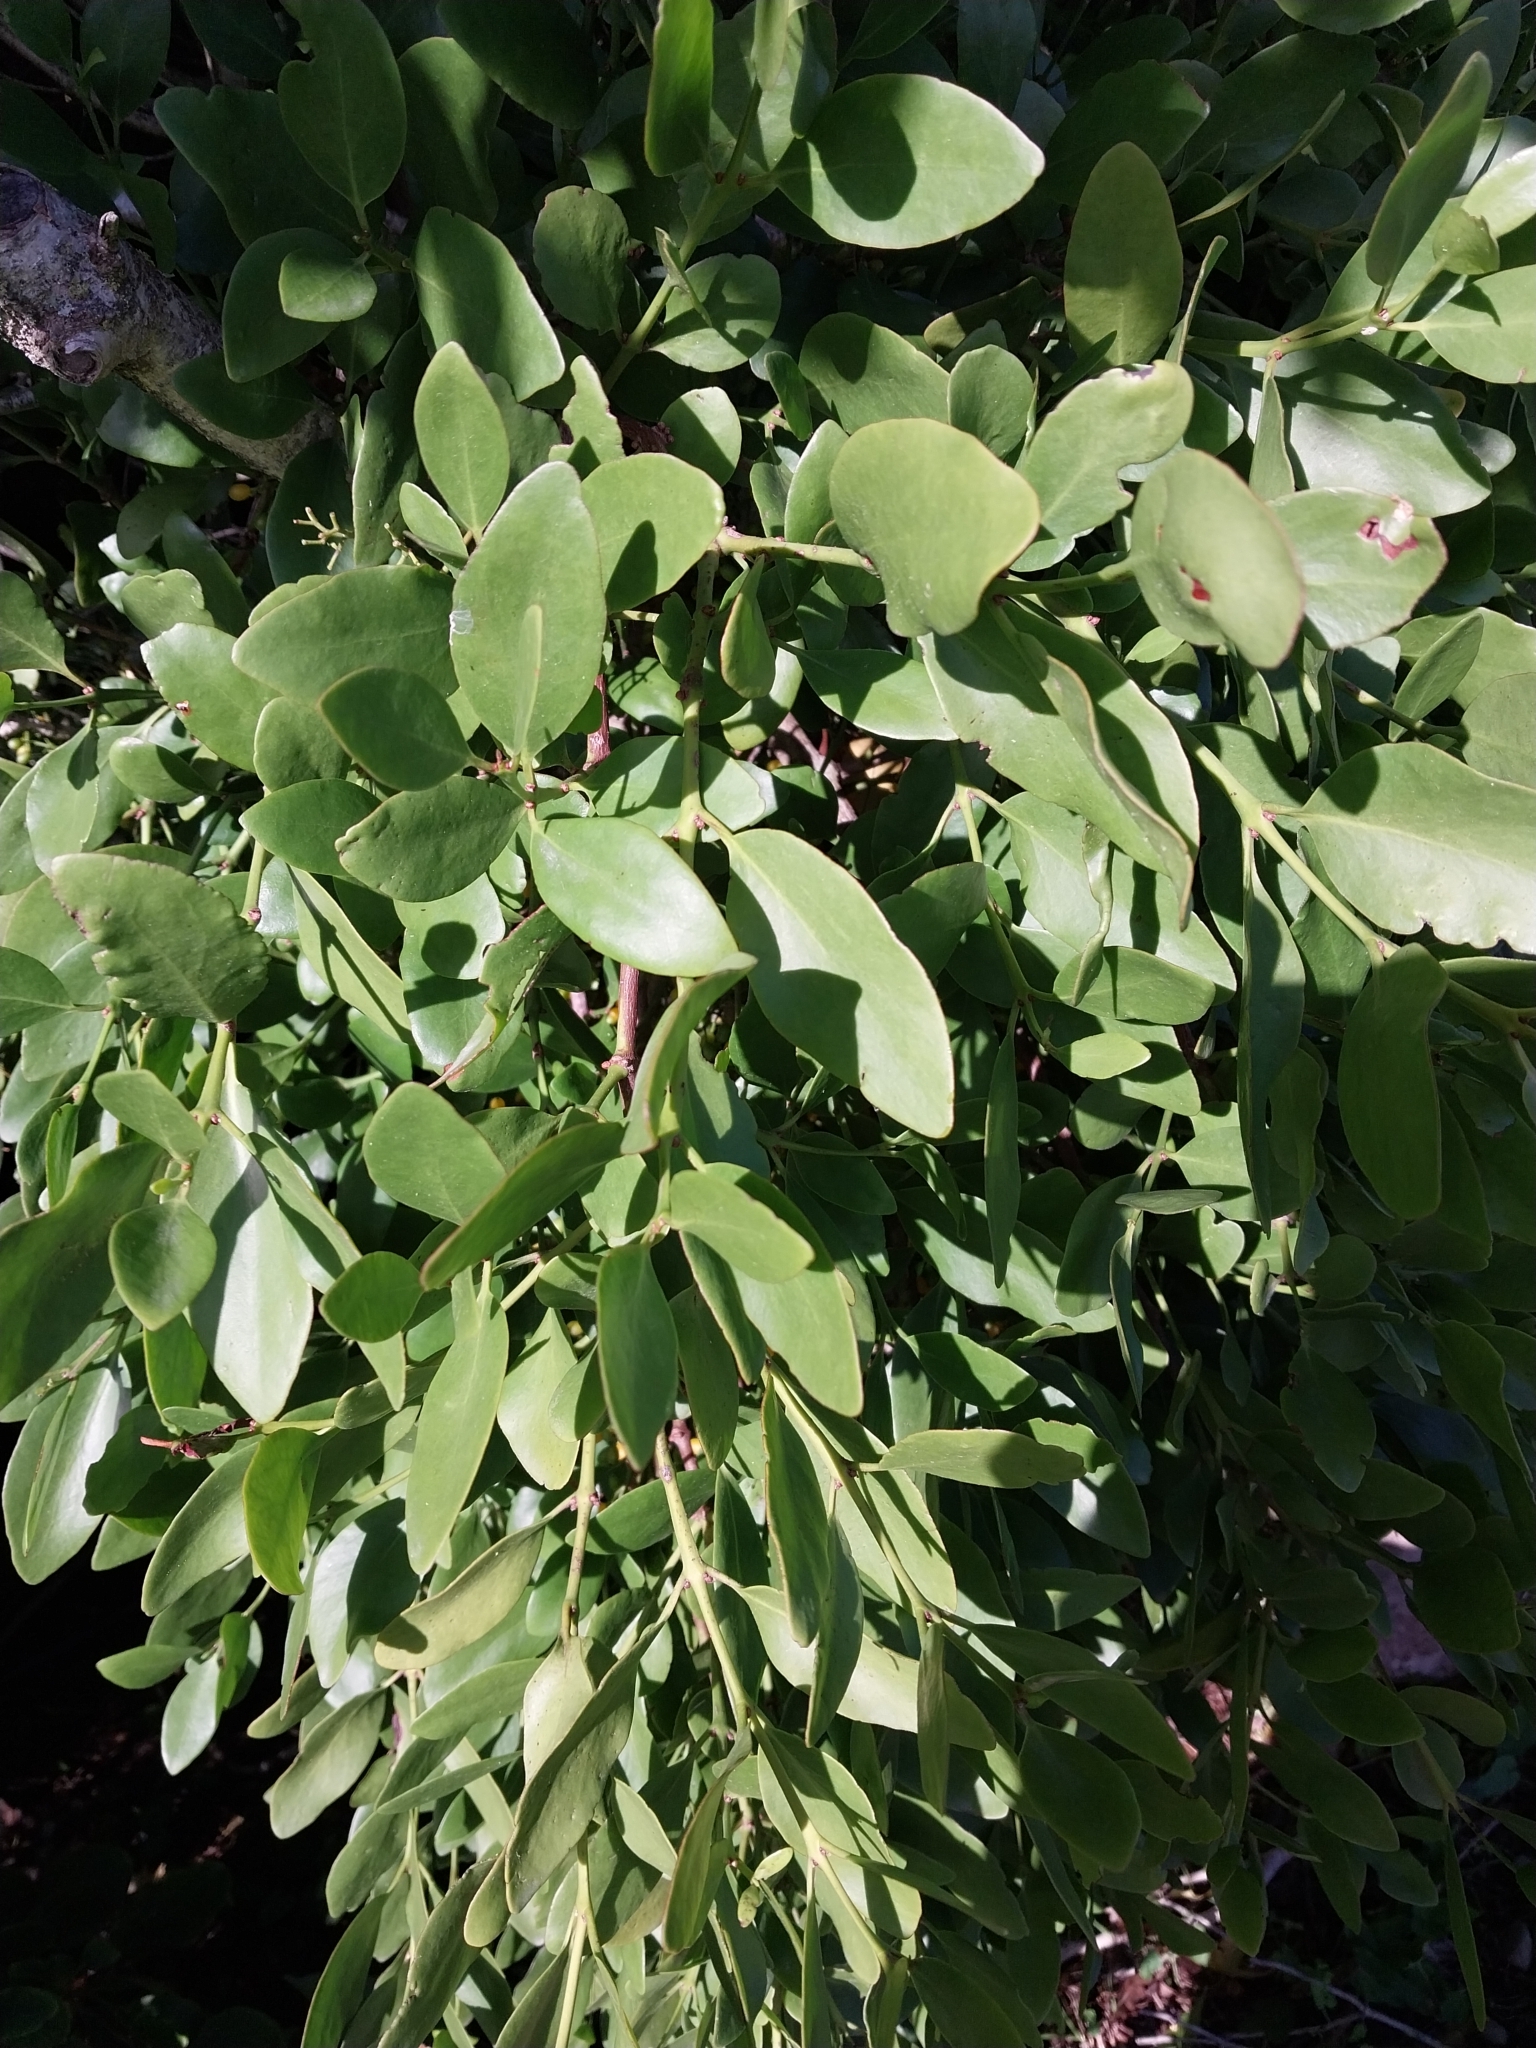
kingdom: Plantae
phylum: Tracheophyta
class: Magnoliopsida
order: Santalales
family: Loranthaceae
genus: Ileostylus
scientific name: Ileostylus micranthus
